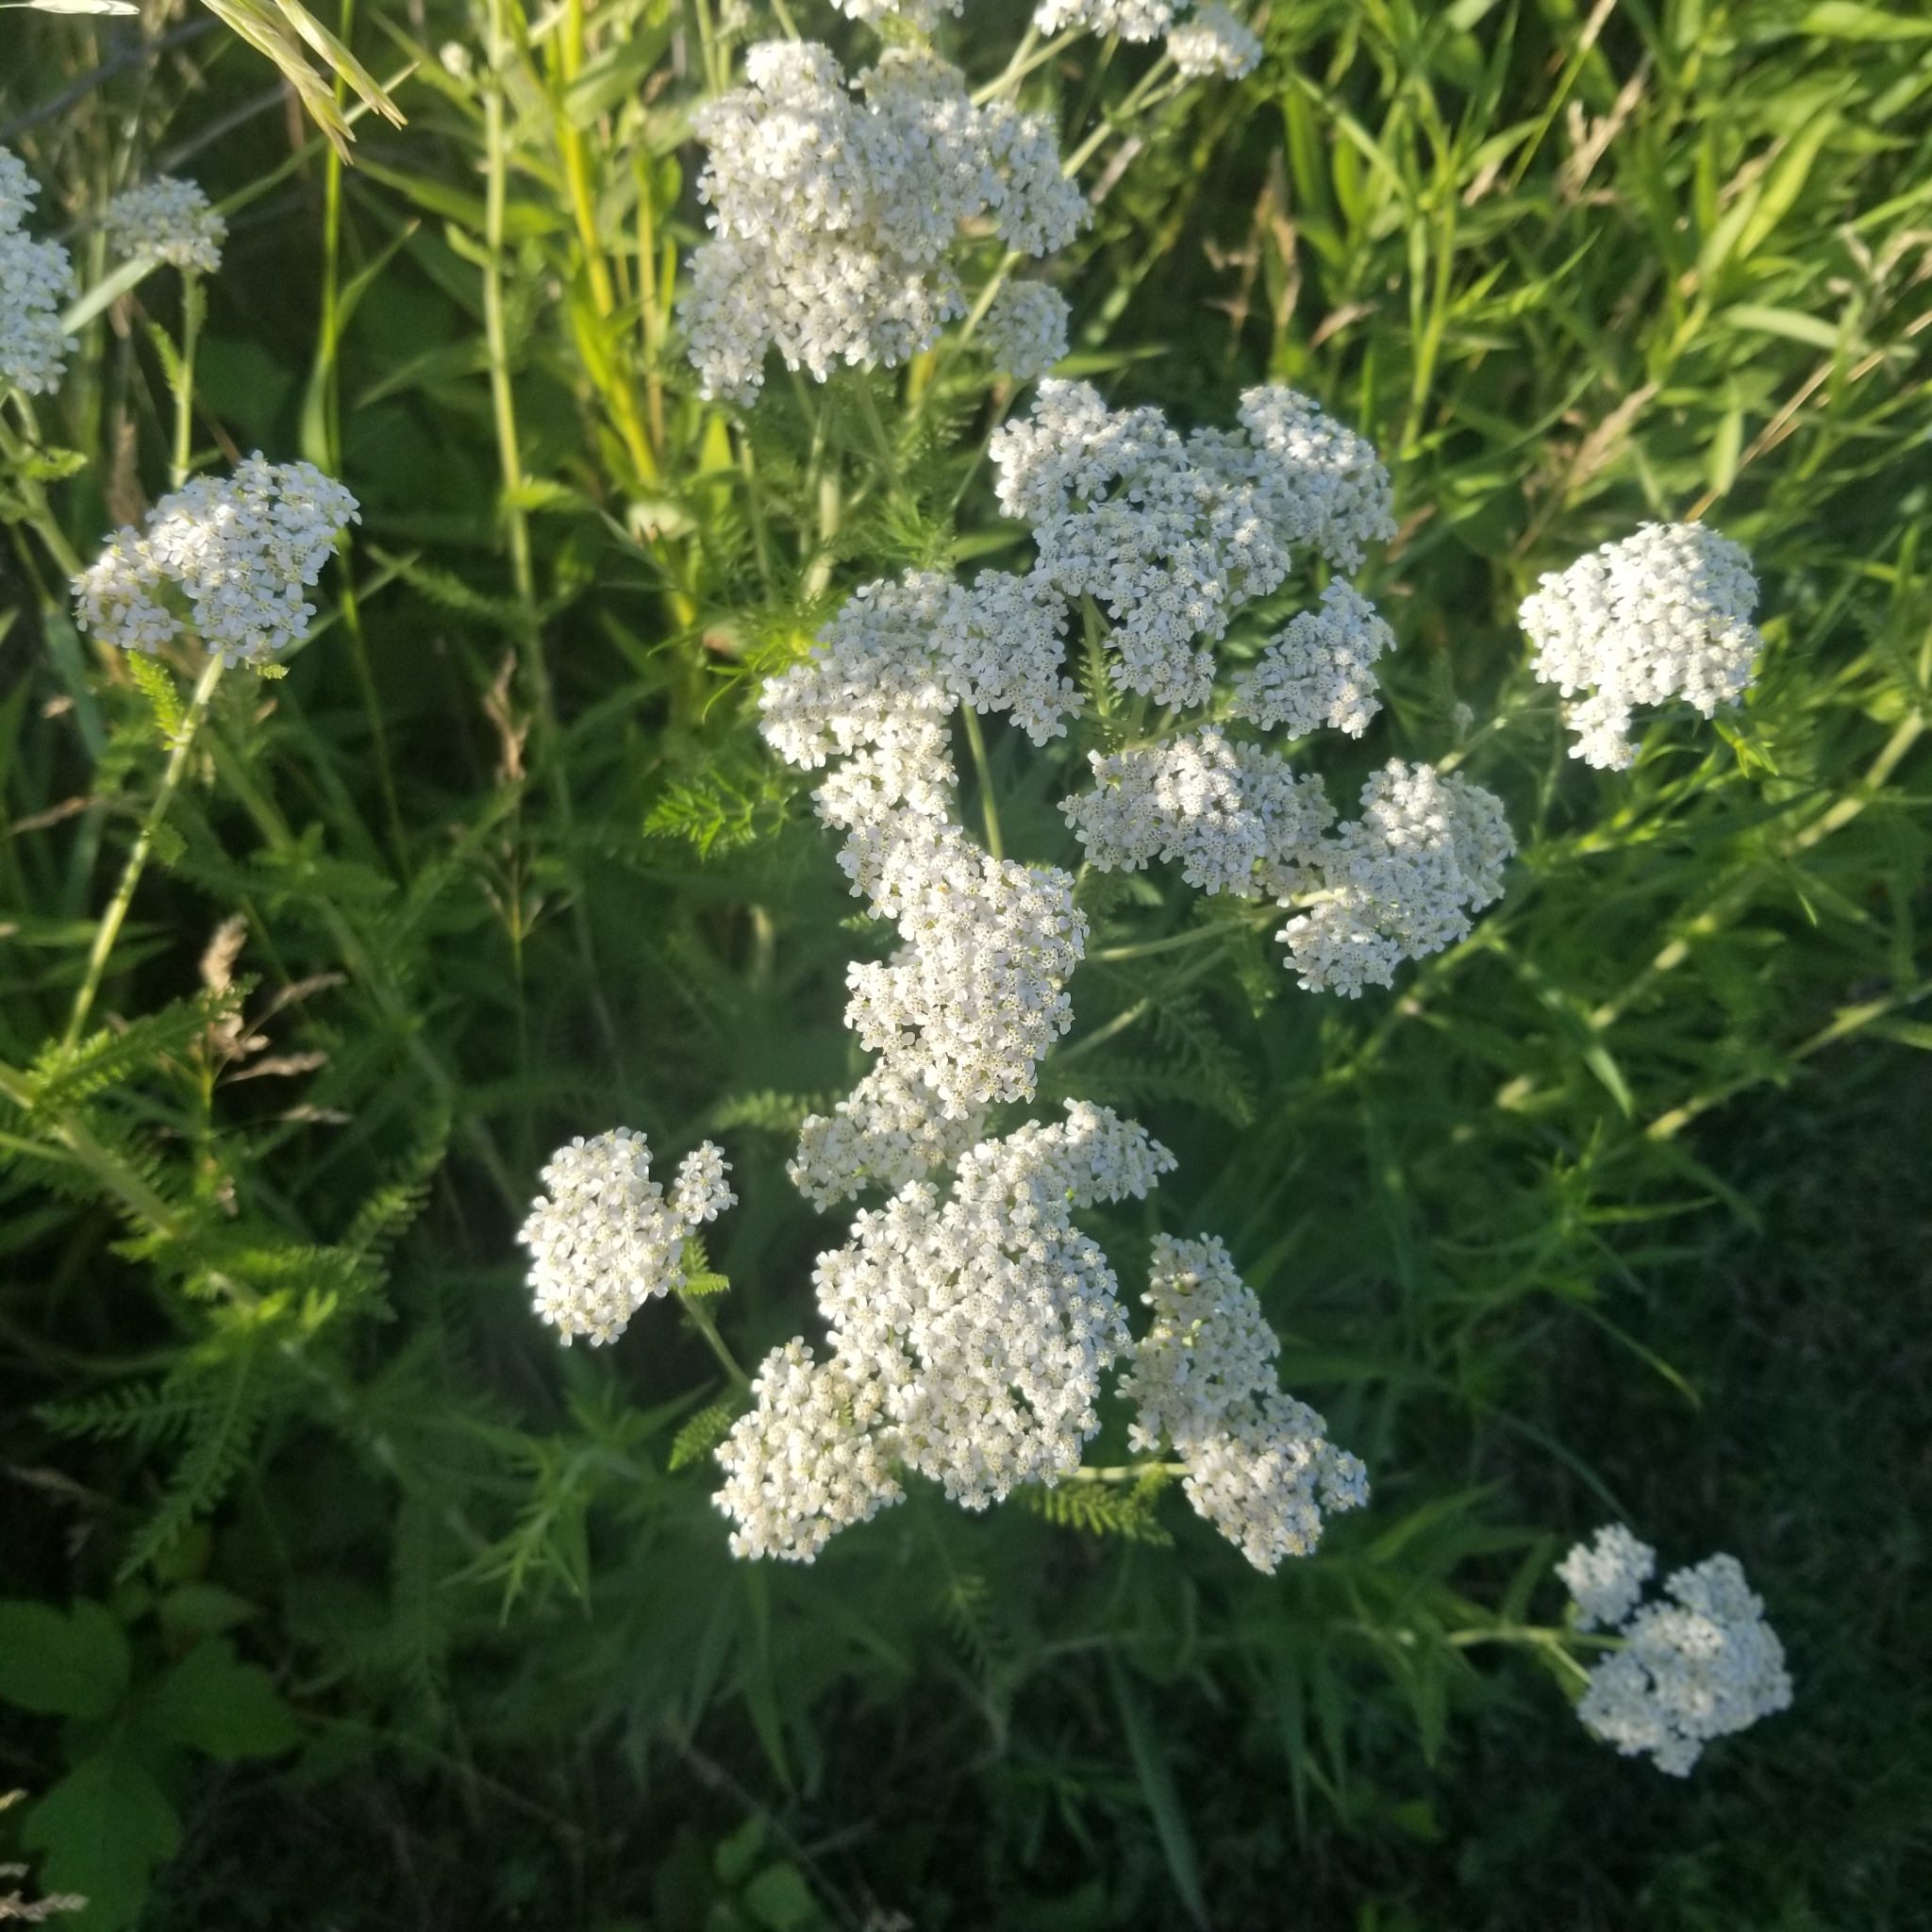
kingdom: Plantae
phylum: Tracheophyta
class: Magnoliopsida
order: Asterales
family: Asteraceae
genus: Achillea
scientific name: Achillea millefolium
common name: Yarrow
